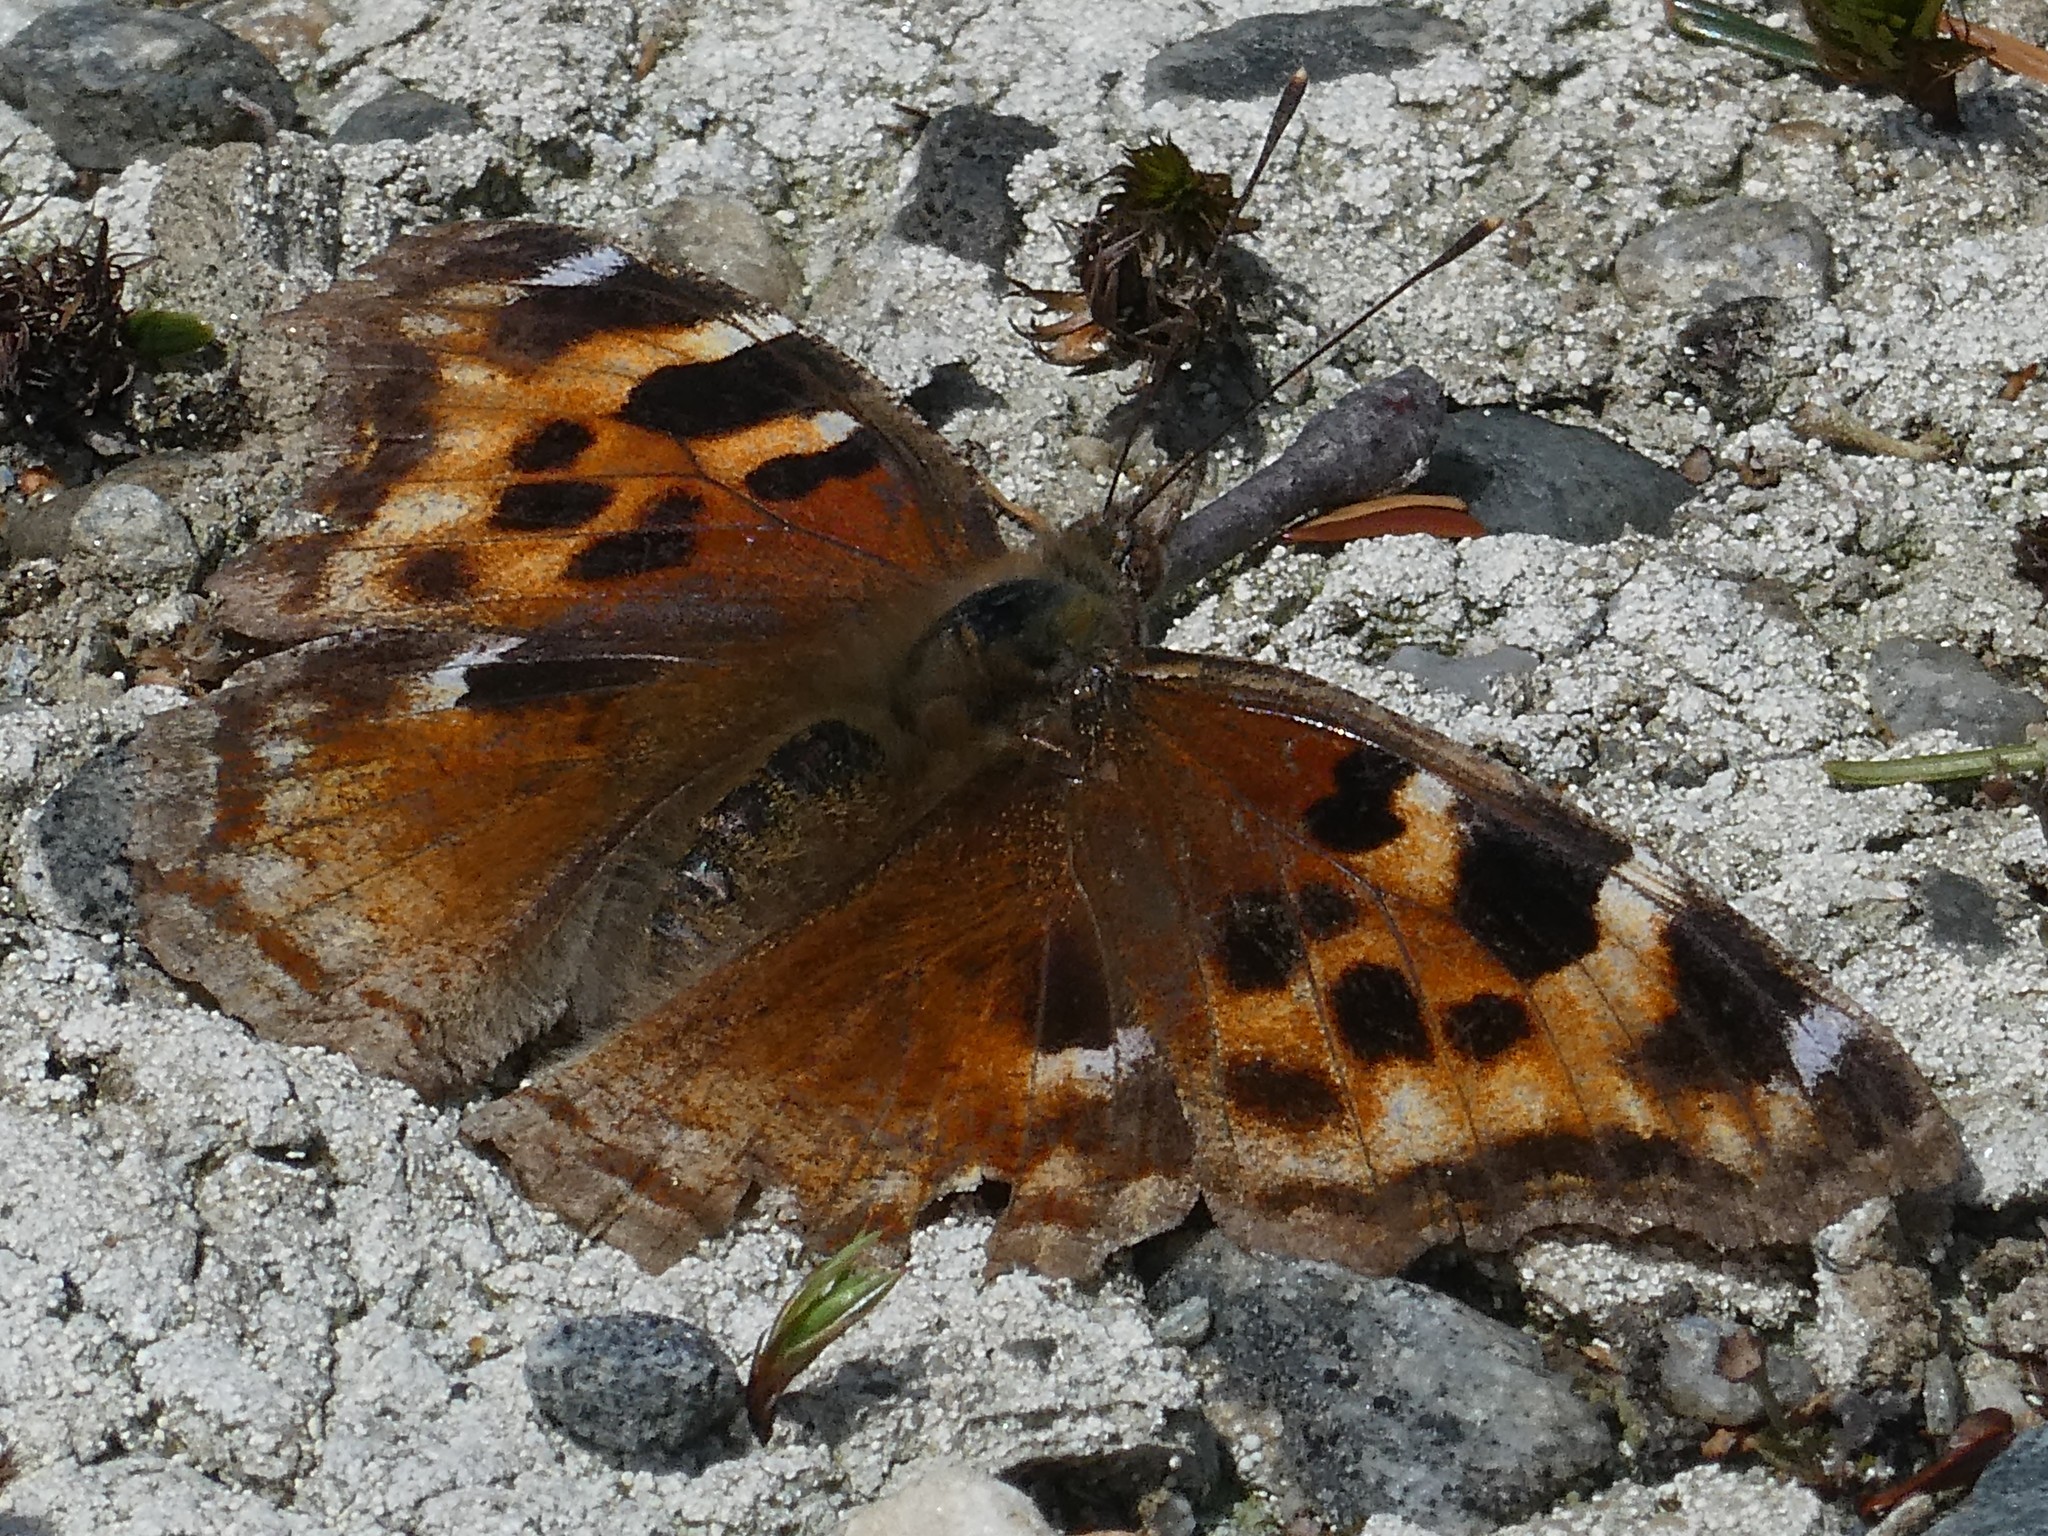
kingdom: Animalia
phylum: Arthropoda
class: Insecta
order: Lepidoptera
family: Nymphalidae
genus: Polygonia
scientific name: Polygonia vaualbum
